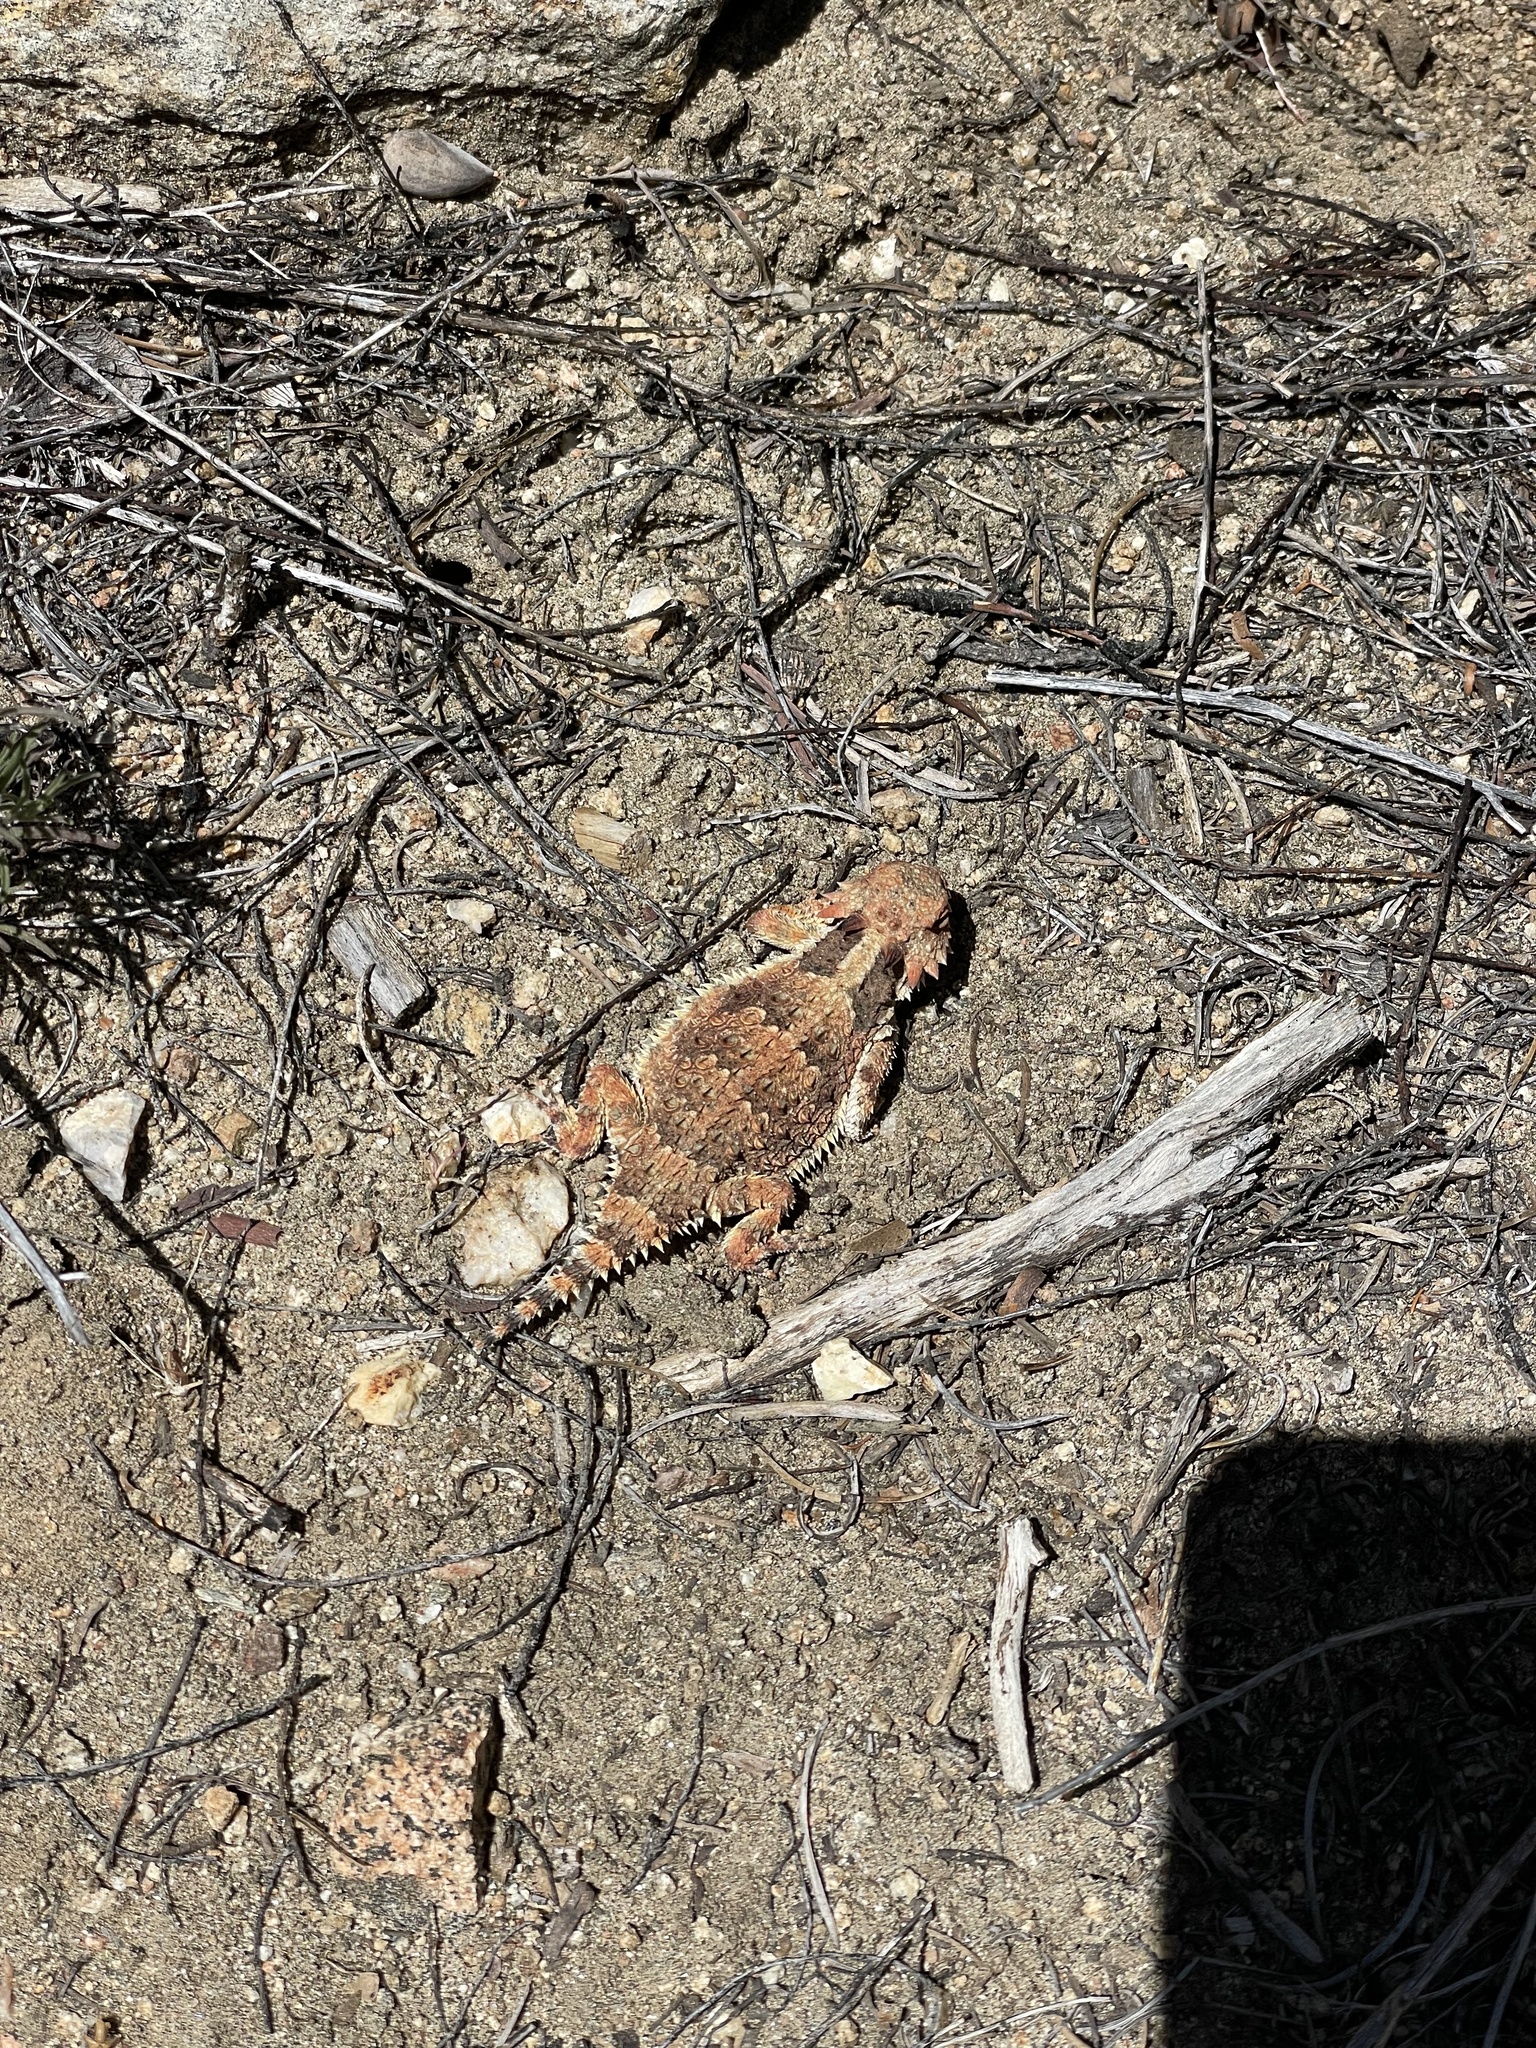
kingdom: Animalia
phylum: Chordata
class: Squamata
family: Phrynosomatidae
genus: Phrynosoma
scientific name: Phrynosoma blainvillii
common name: San diego horned lizard
